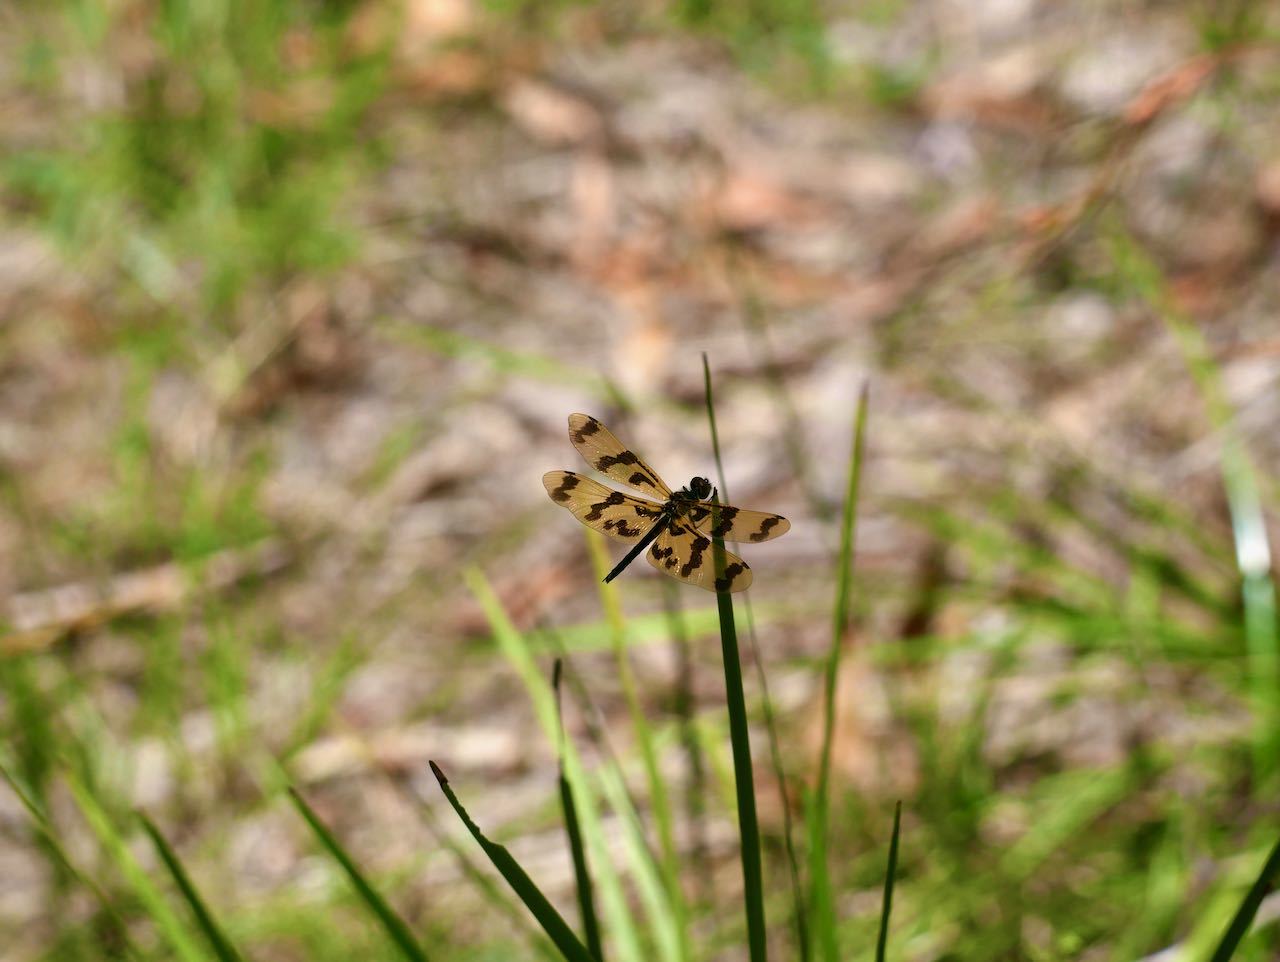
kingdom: Animalia
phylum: Arthropoda
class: Insecta
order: Odonata
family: Libellulidae
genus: Rhyothemis
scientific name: Rhyothemis graphiptera
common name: Graphic flutterer
